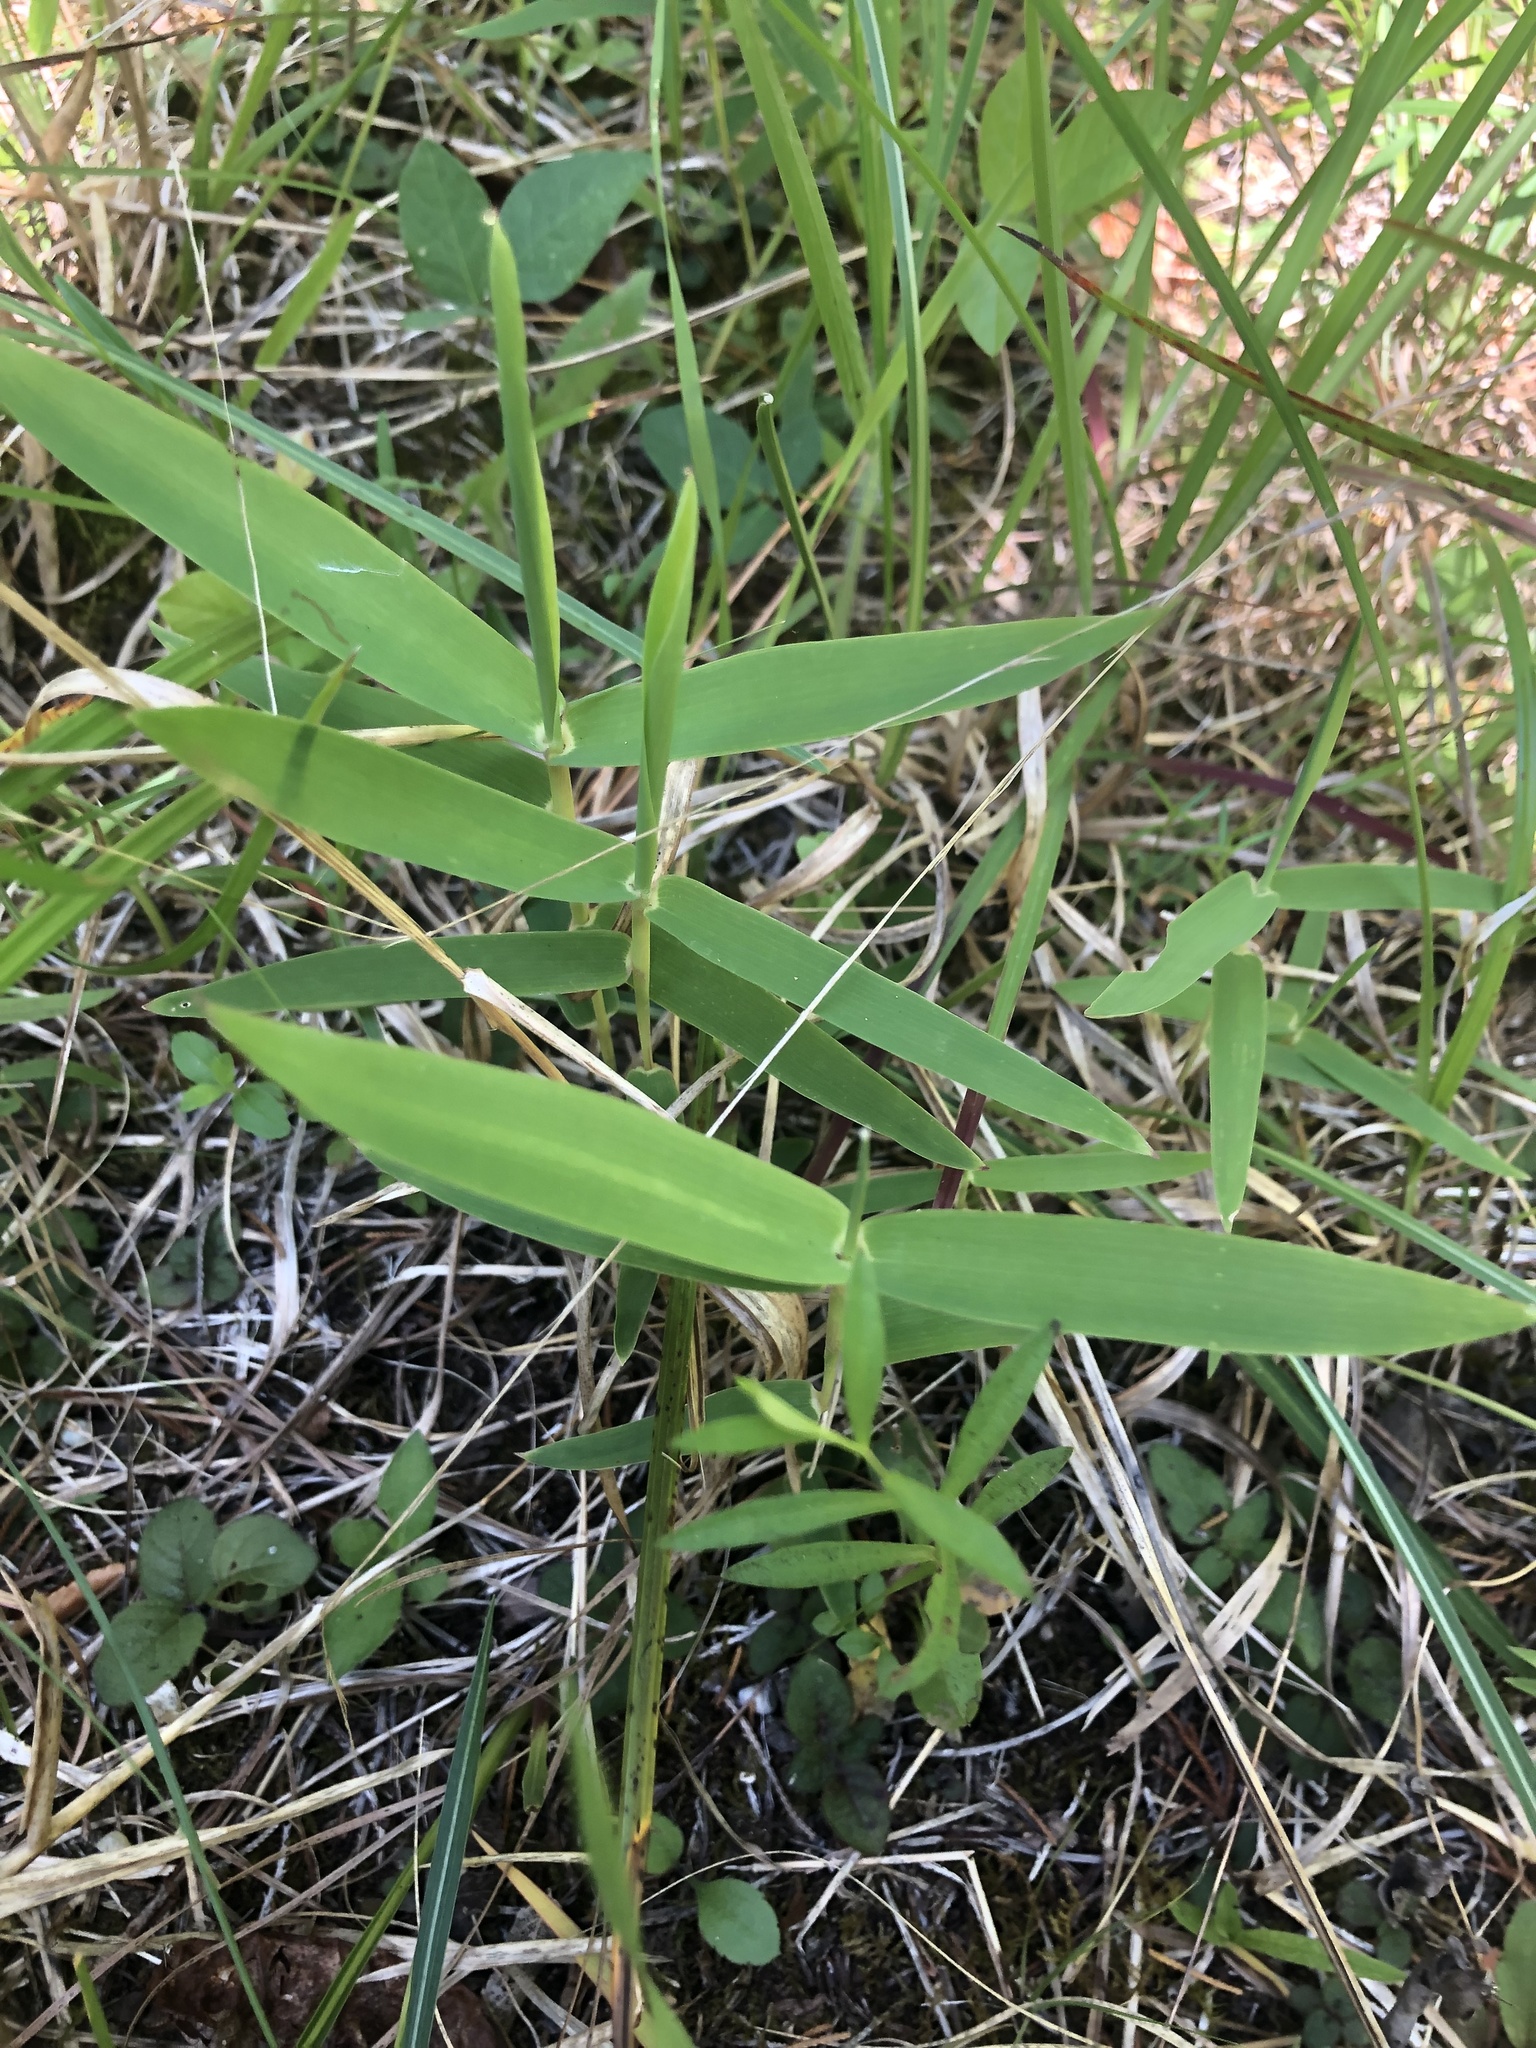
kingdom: Plantae
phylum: Tracheophyta
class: Liliopsida
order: Poales
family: Poaceae
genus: Gymnopogon
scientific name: Gymnopogon ambiguus
